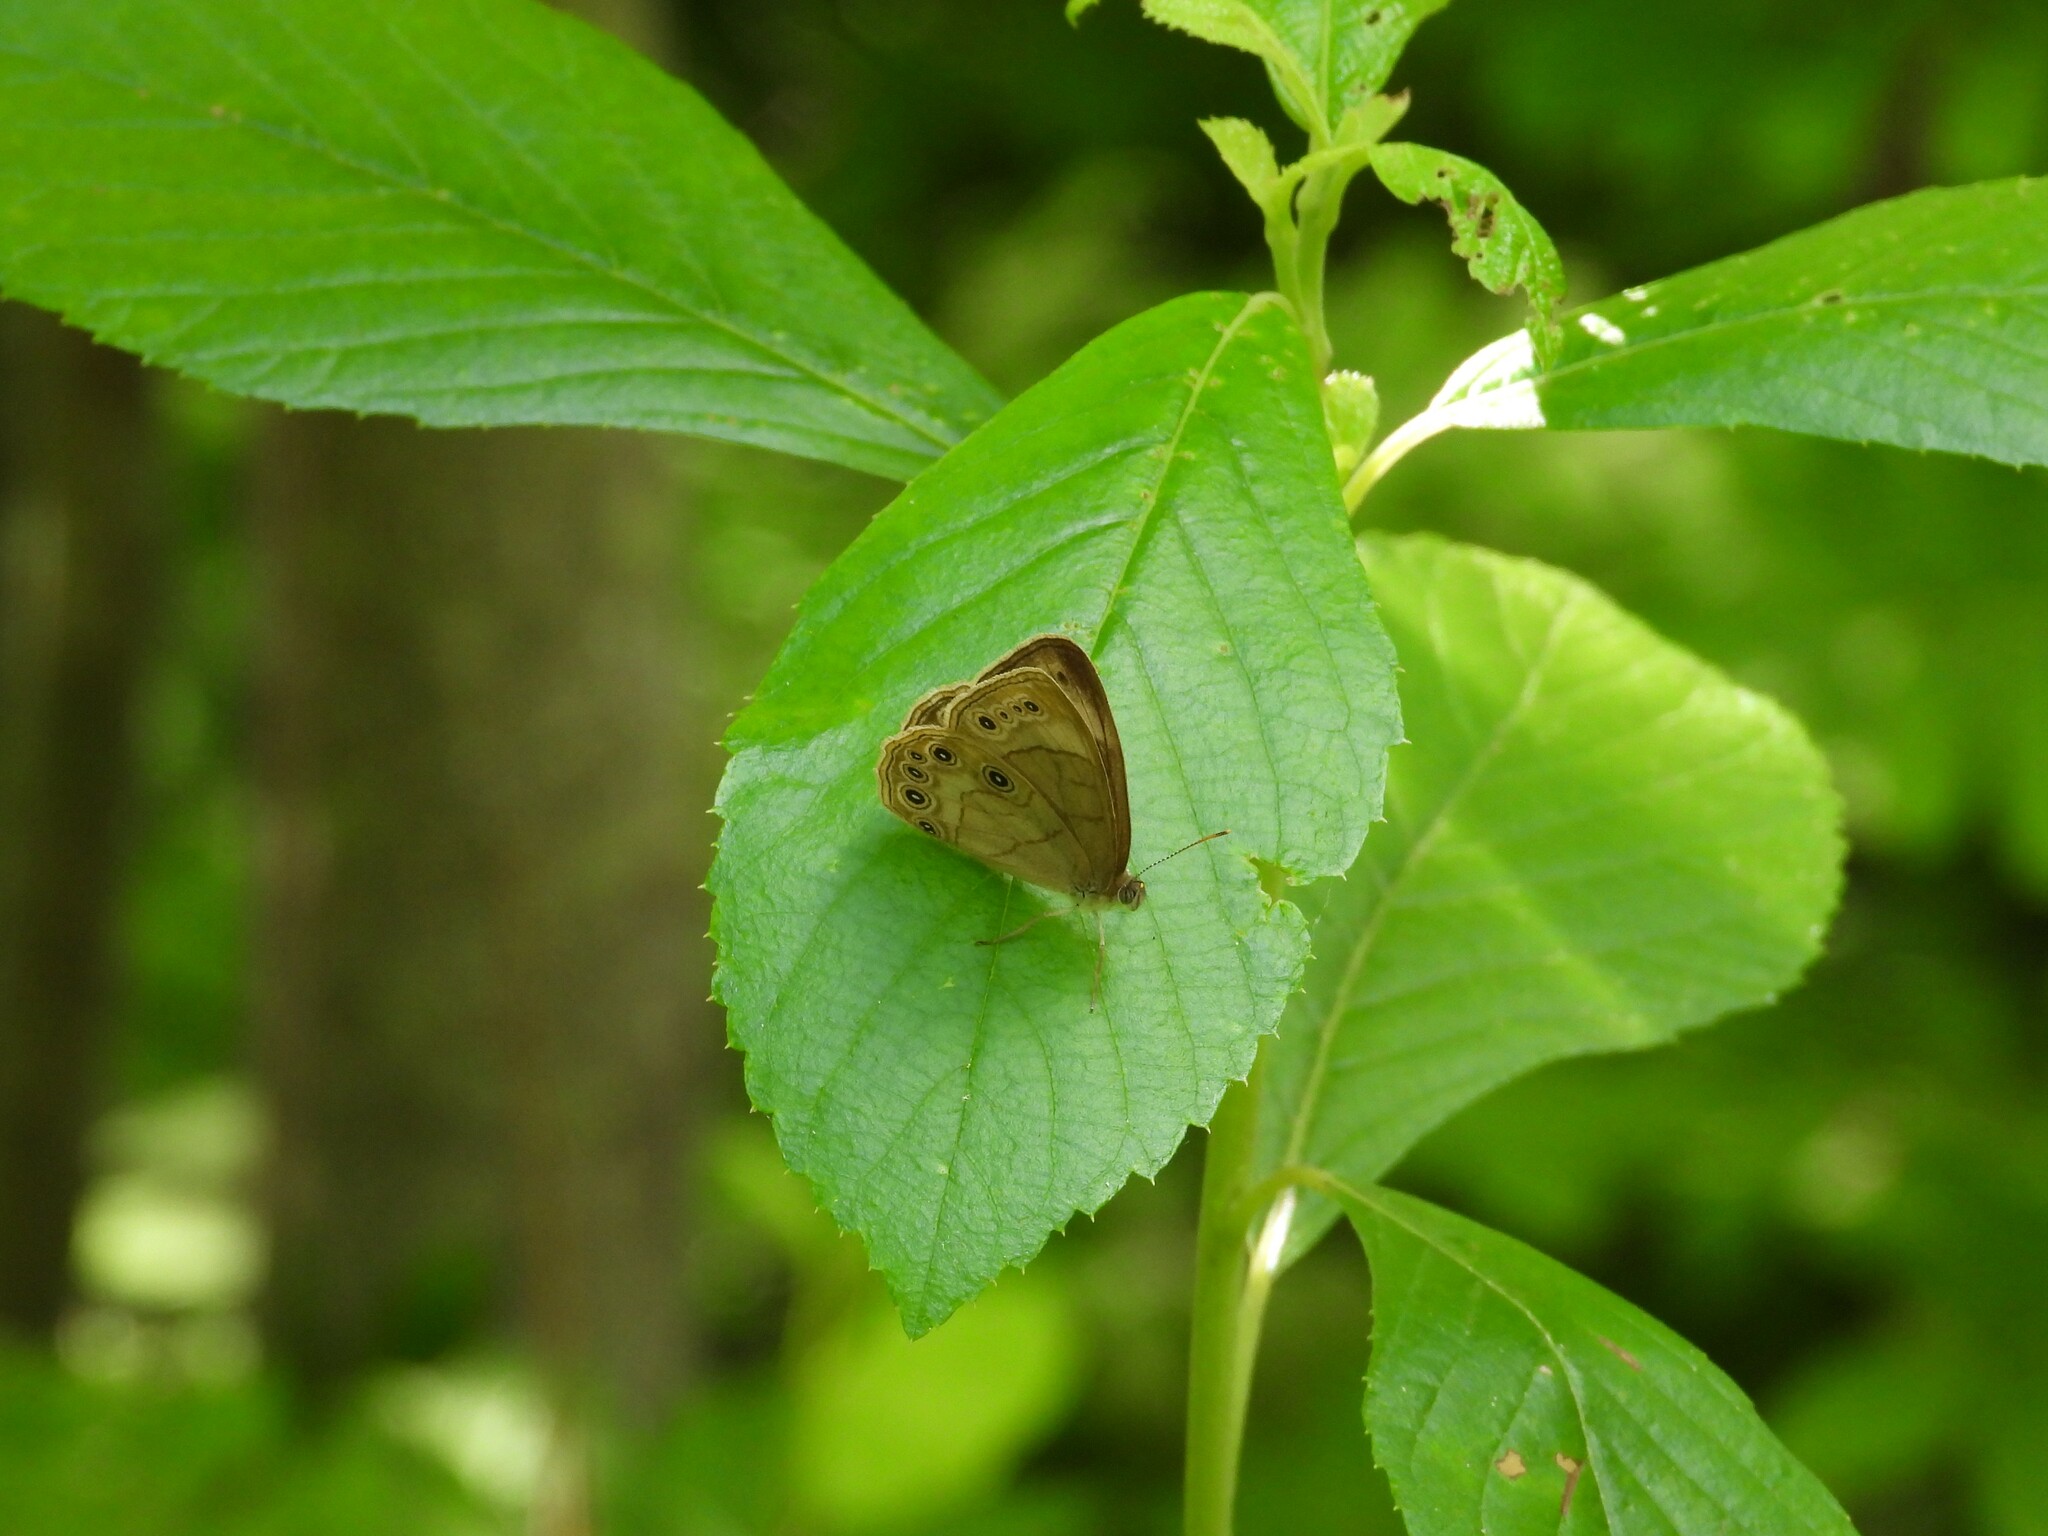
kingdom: Animalia
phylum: Arthropoda
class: Insecta
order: Lepidoptera
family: Nymphalidae
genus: Lethe
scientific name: Lethe eurydice
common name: Eyed brown
